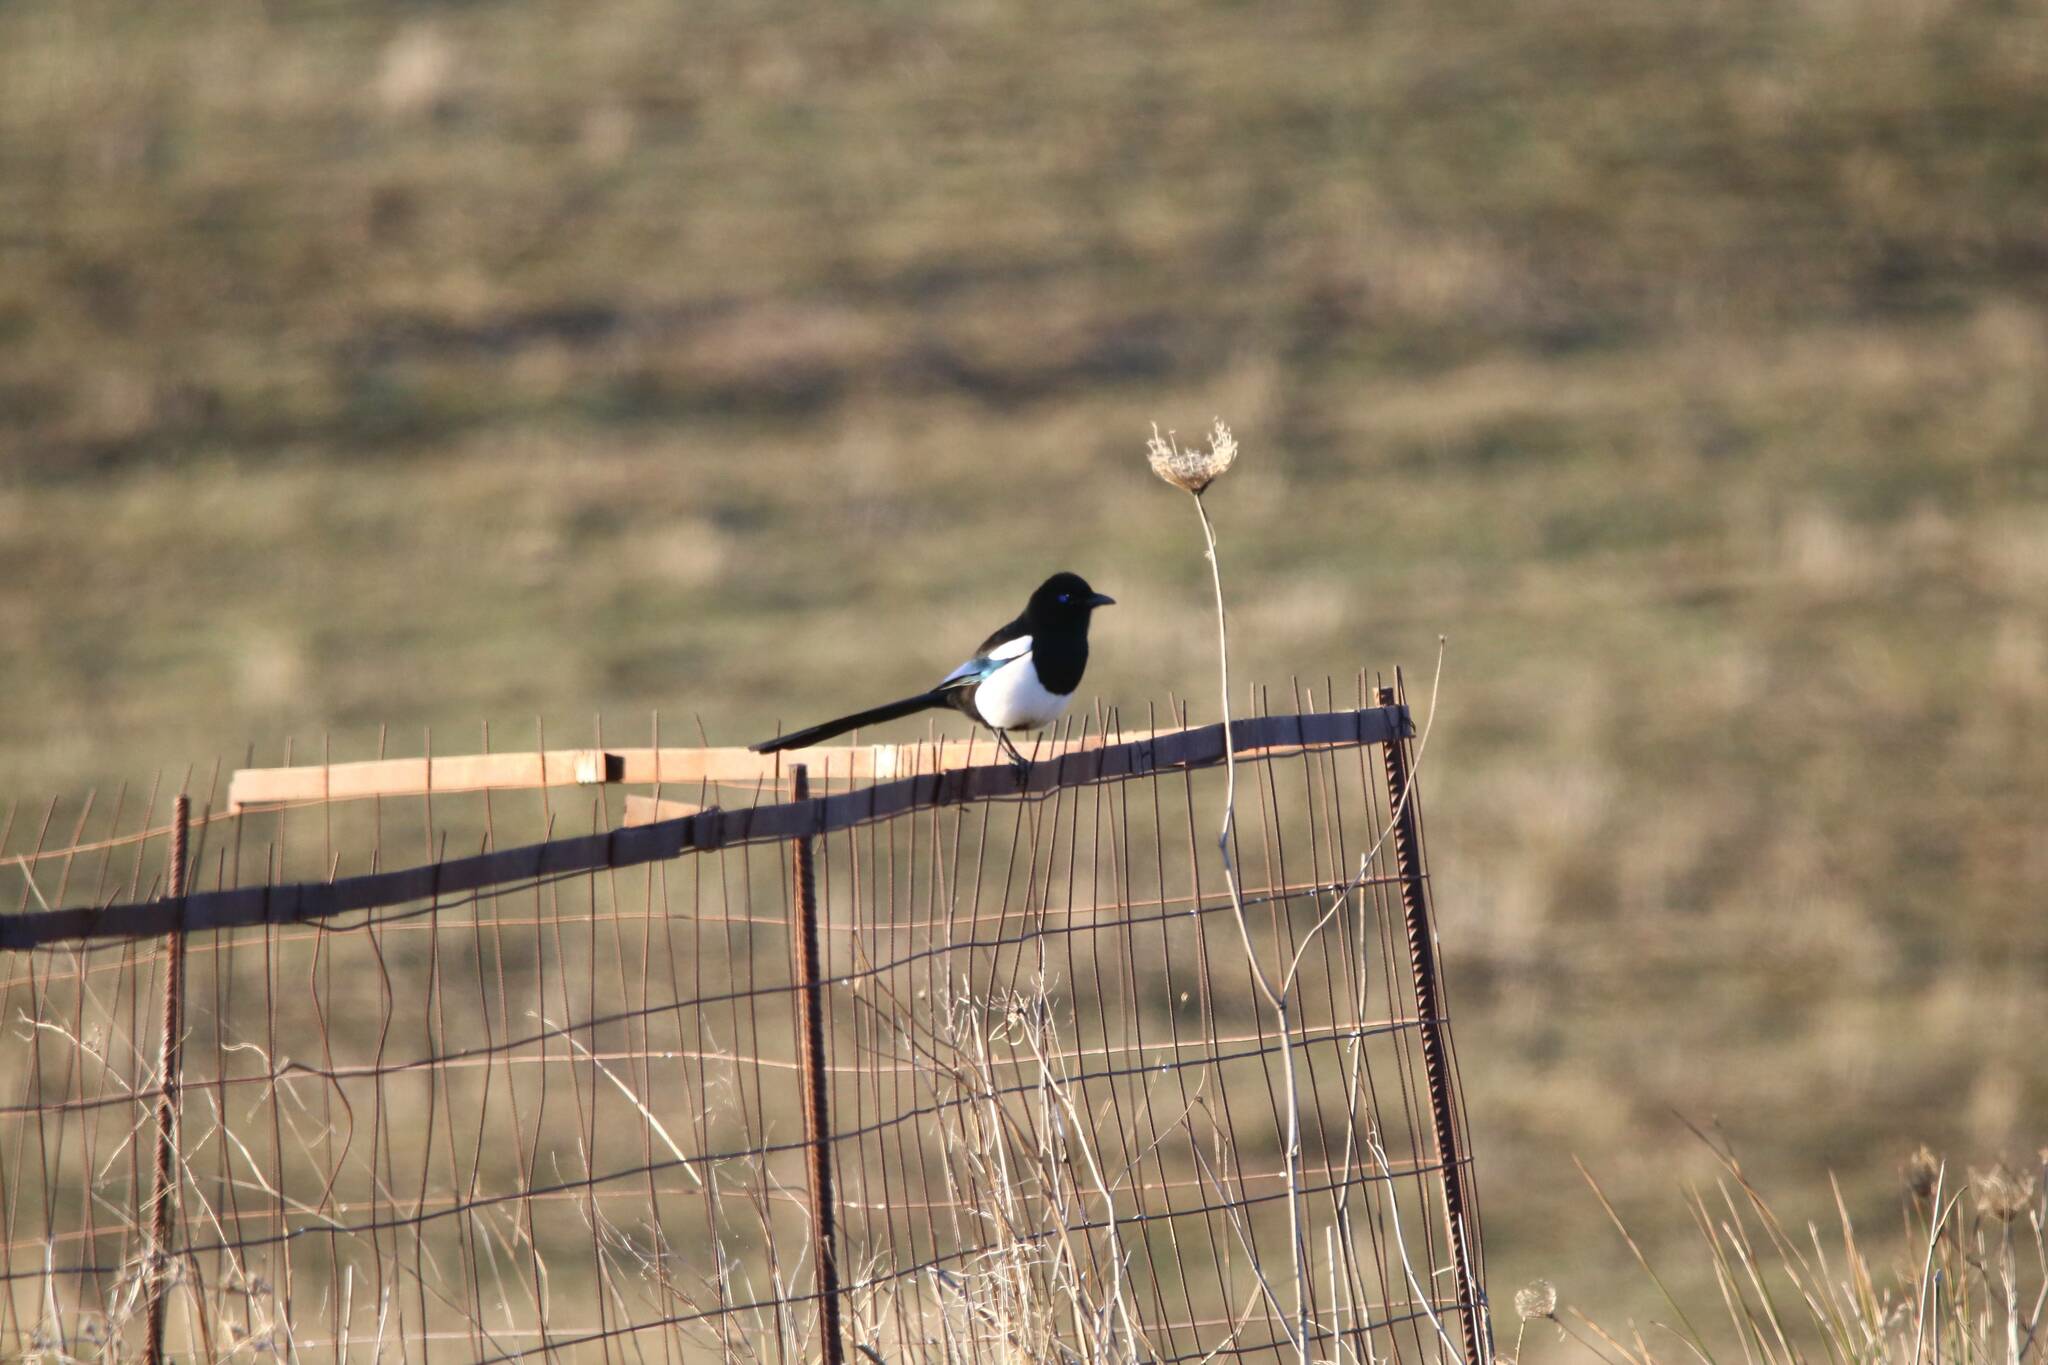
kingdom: Animalia
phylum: Chordata
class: Aves
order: Passeriformes
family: Corvidae
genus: Pica
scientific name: Pica mauritanica
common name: Maghreb magpie
